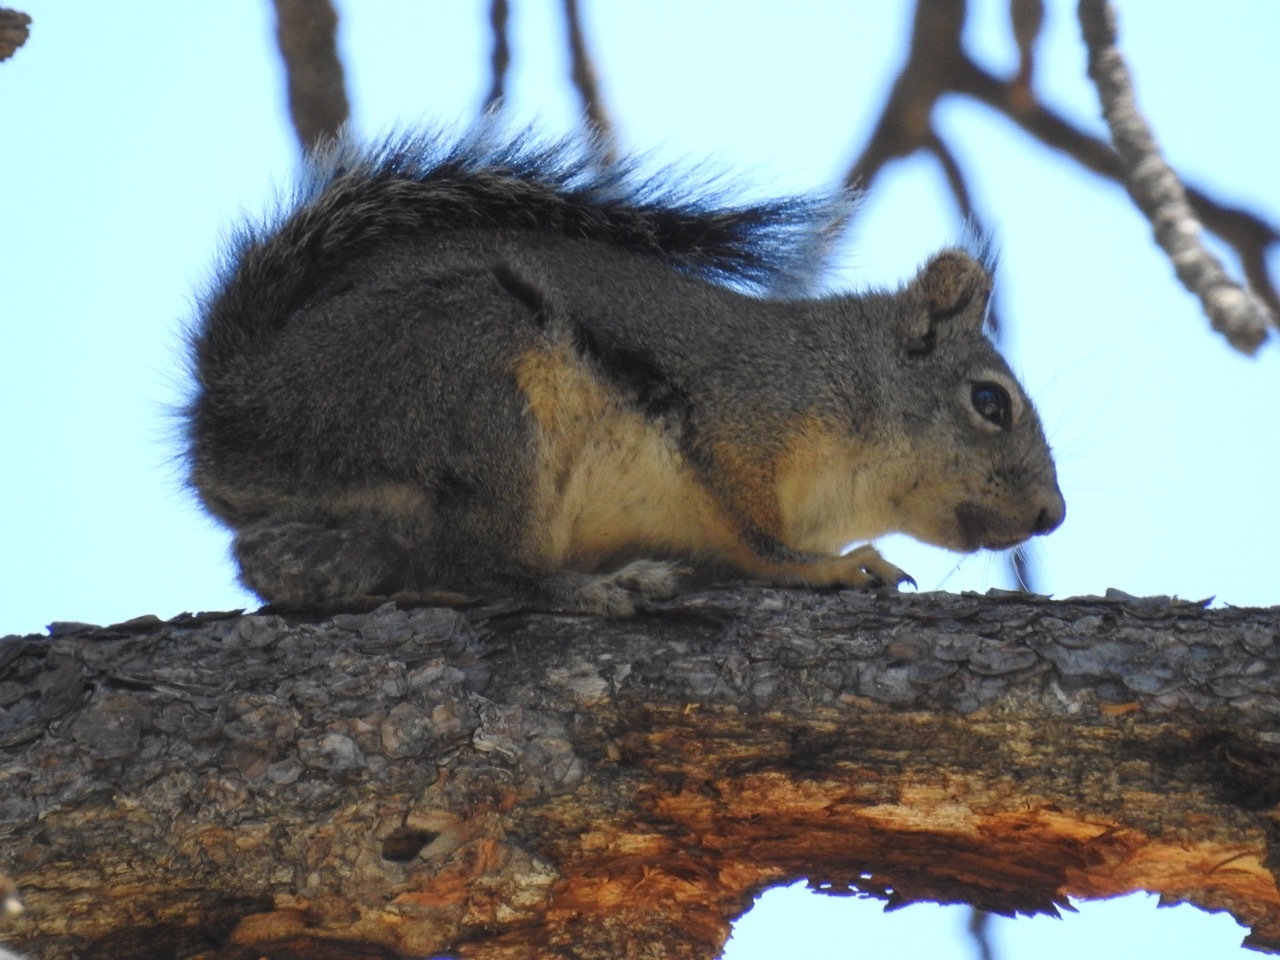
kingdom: Animalia
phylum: Chordata
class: Mammalia
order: Rodentia
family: Sciuridae
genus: Tamiasciurus
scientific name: Tamiasciurus douglasii
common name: Douglas's squirrel
